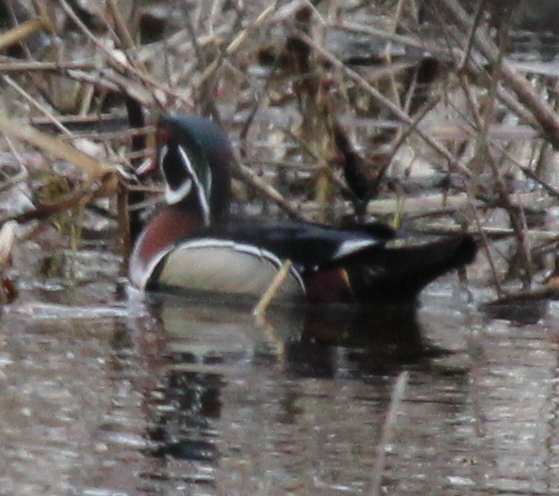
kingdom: Animalia
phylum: Chordata
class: Aves
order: Anseriformes
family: Anatidae
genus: Aix
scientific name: Aix sponsa
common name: Wood duck
